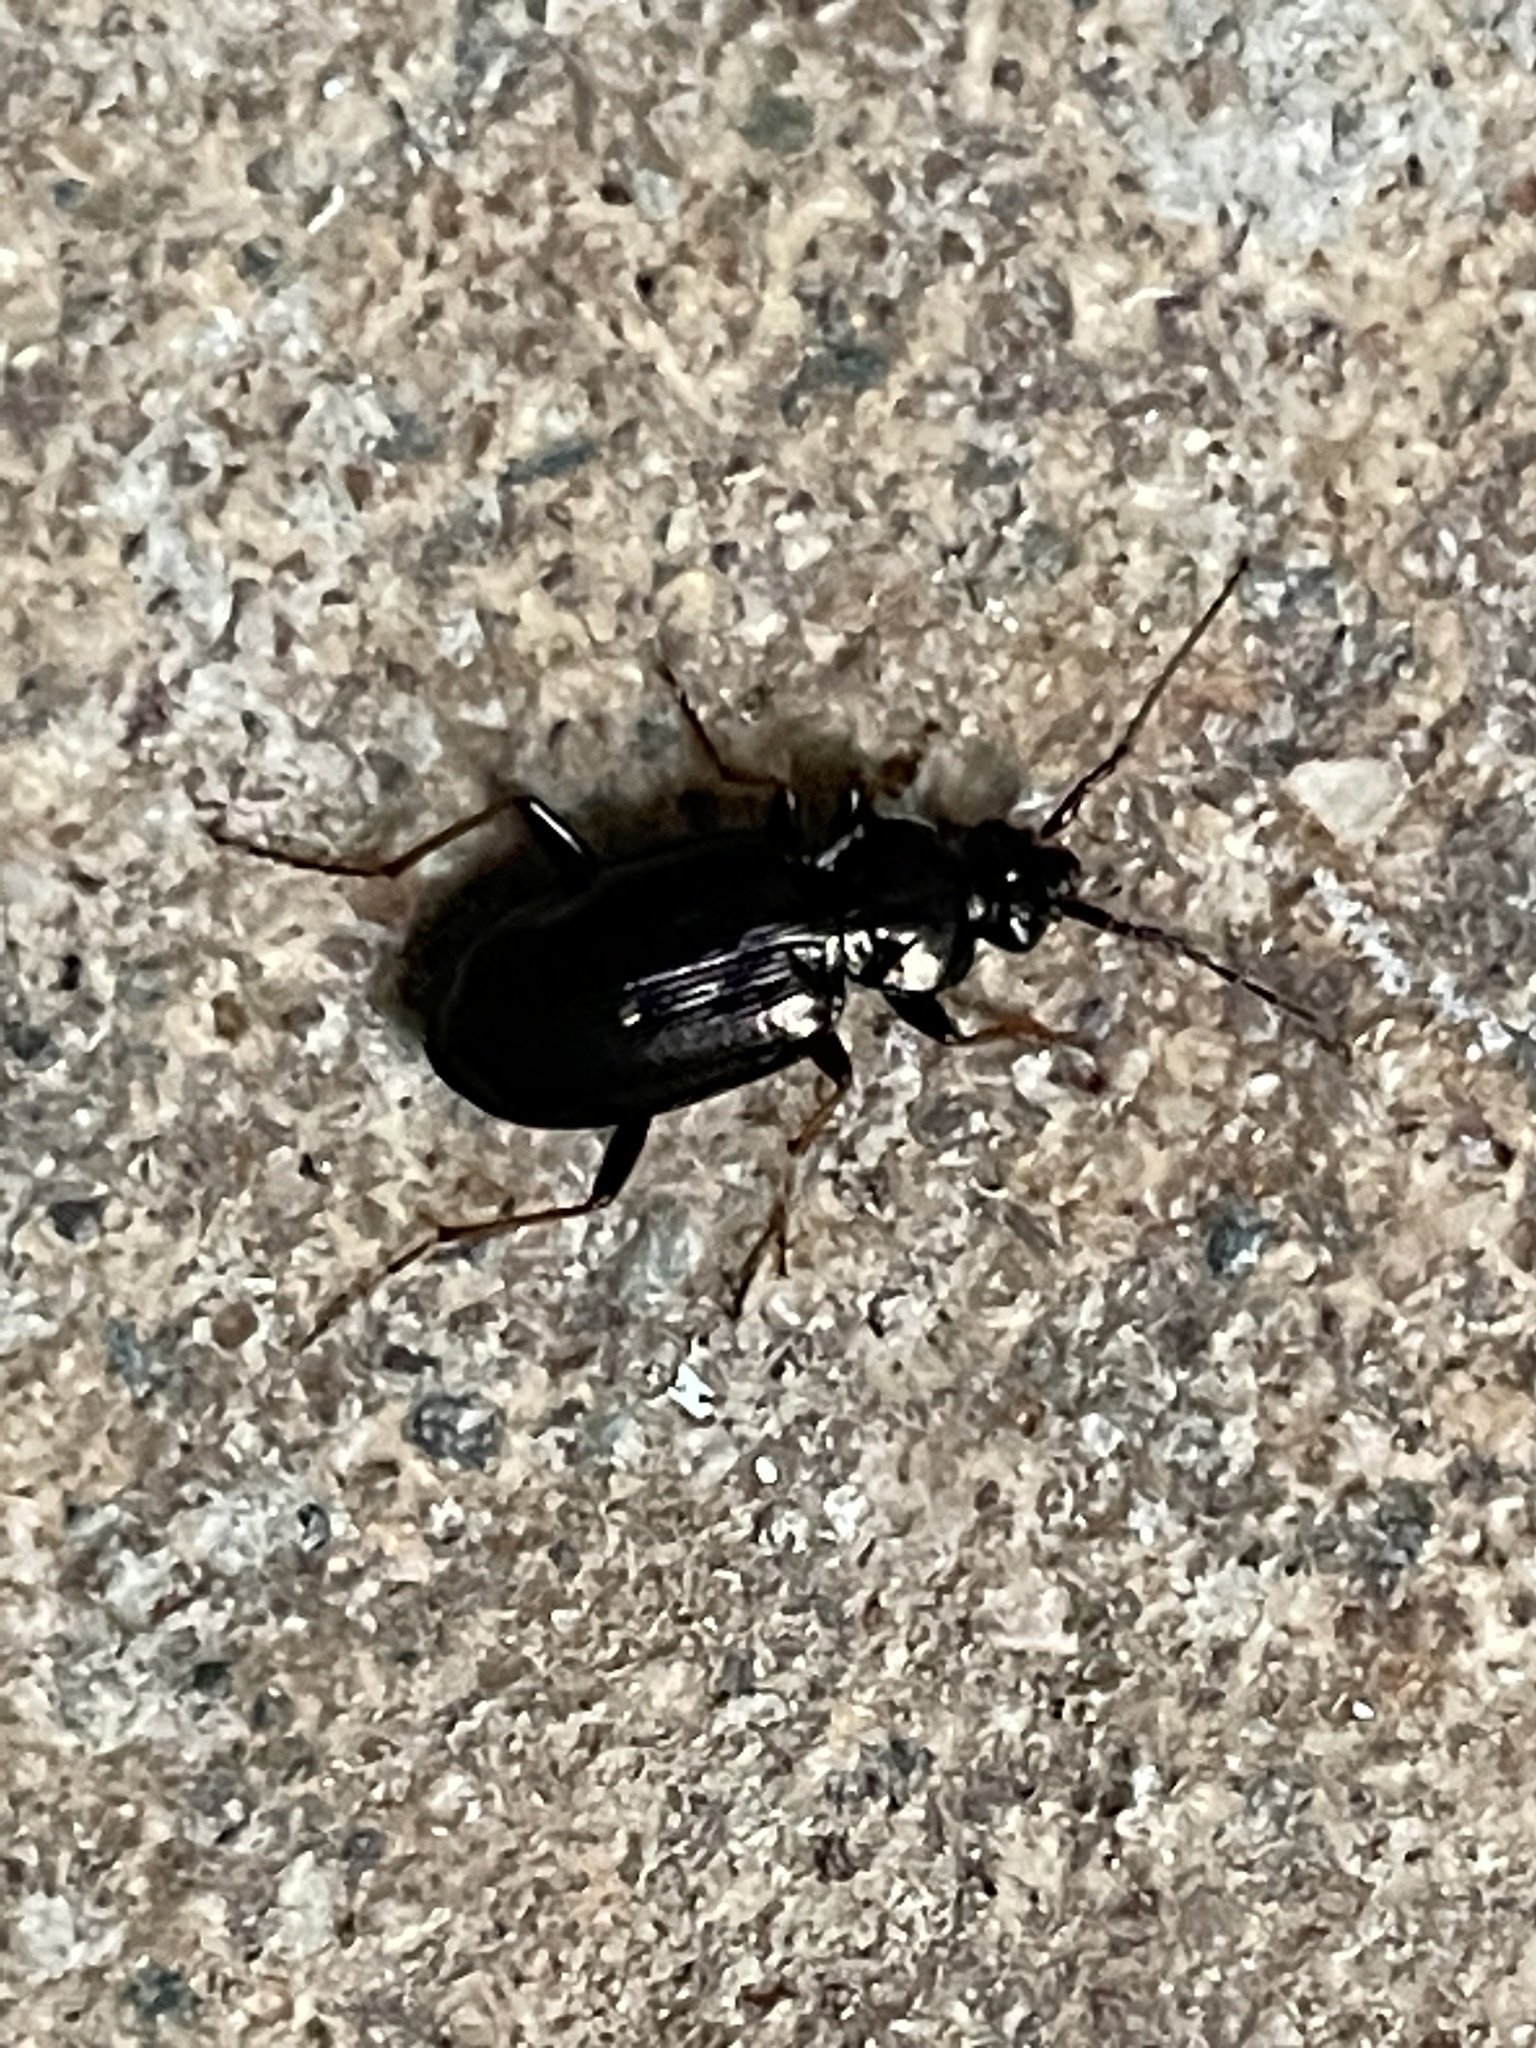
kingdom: Animalia
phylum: Arthropoda
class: Insecta
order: Coleoptera
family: Carabidae
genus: Loricera
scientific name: Loricera pilicornis
